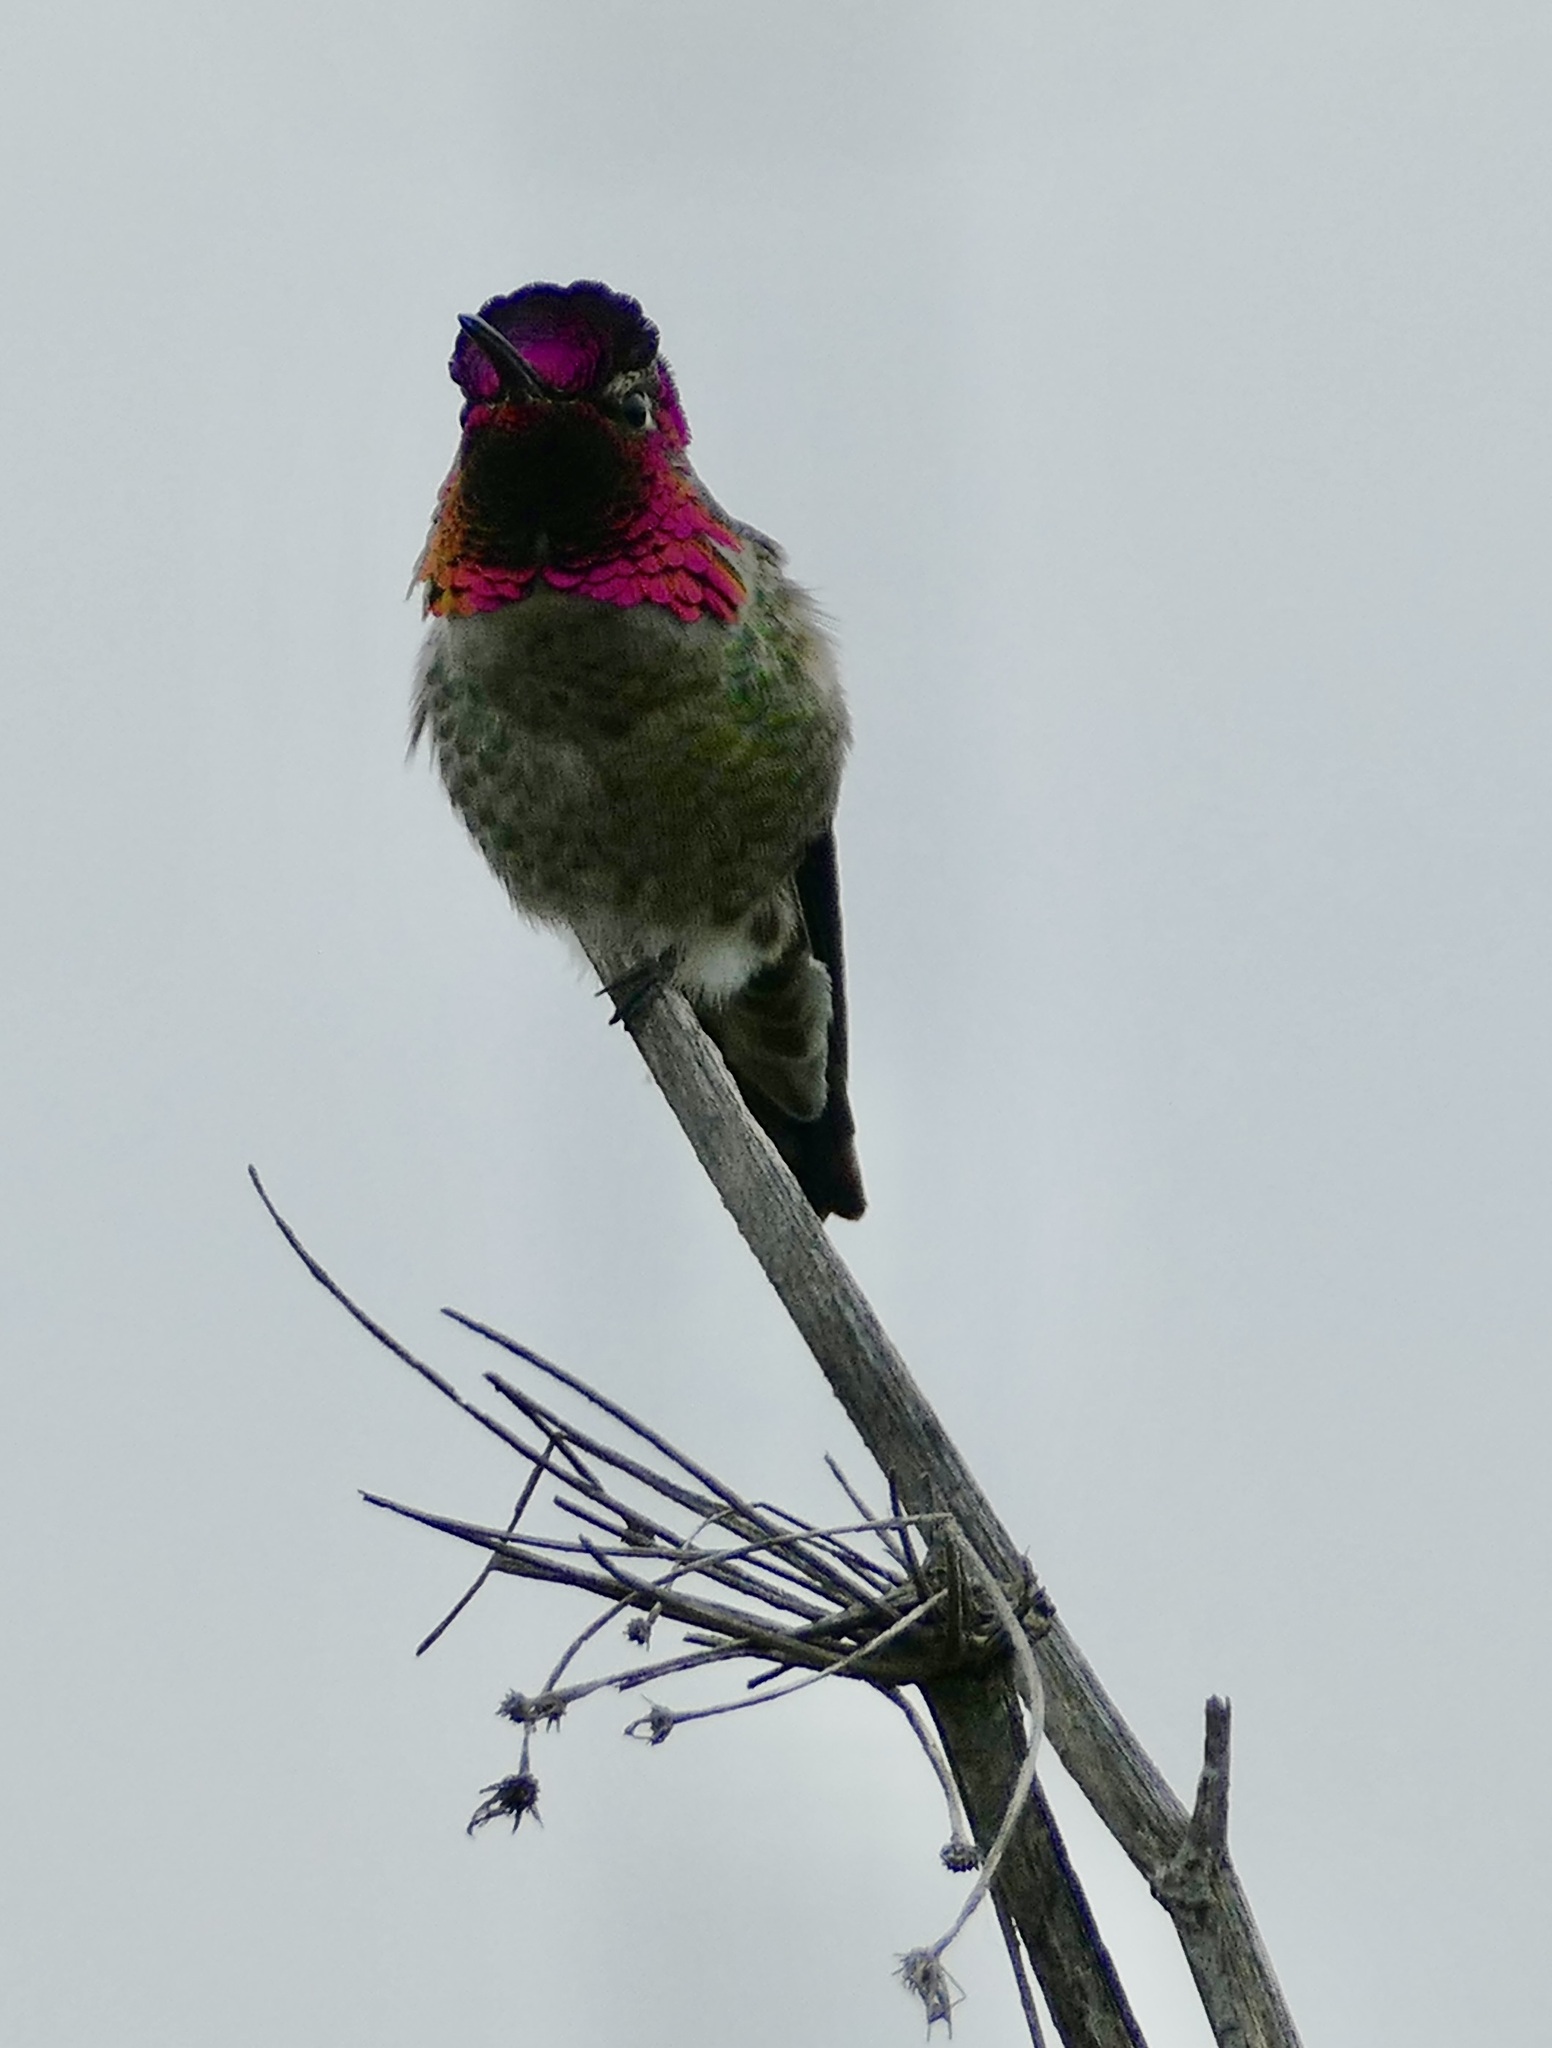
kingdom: Animalia
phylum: Chordata
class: Aves
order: Apodiformes
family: Trochilidae
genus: Calypte
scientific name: Calypte anna
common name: Anna's hummingbird
